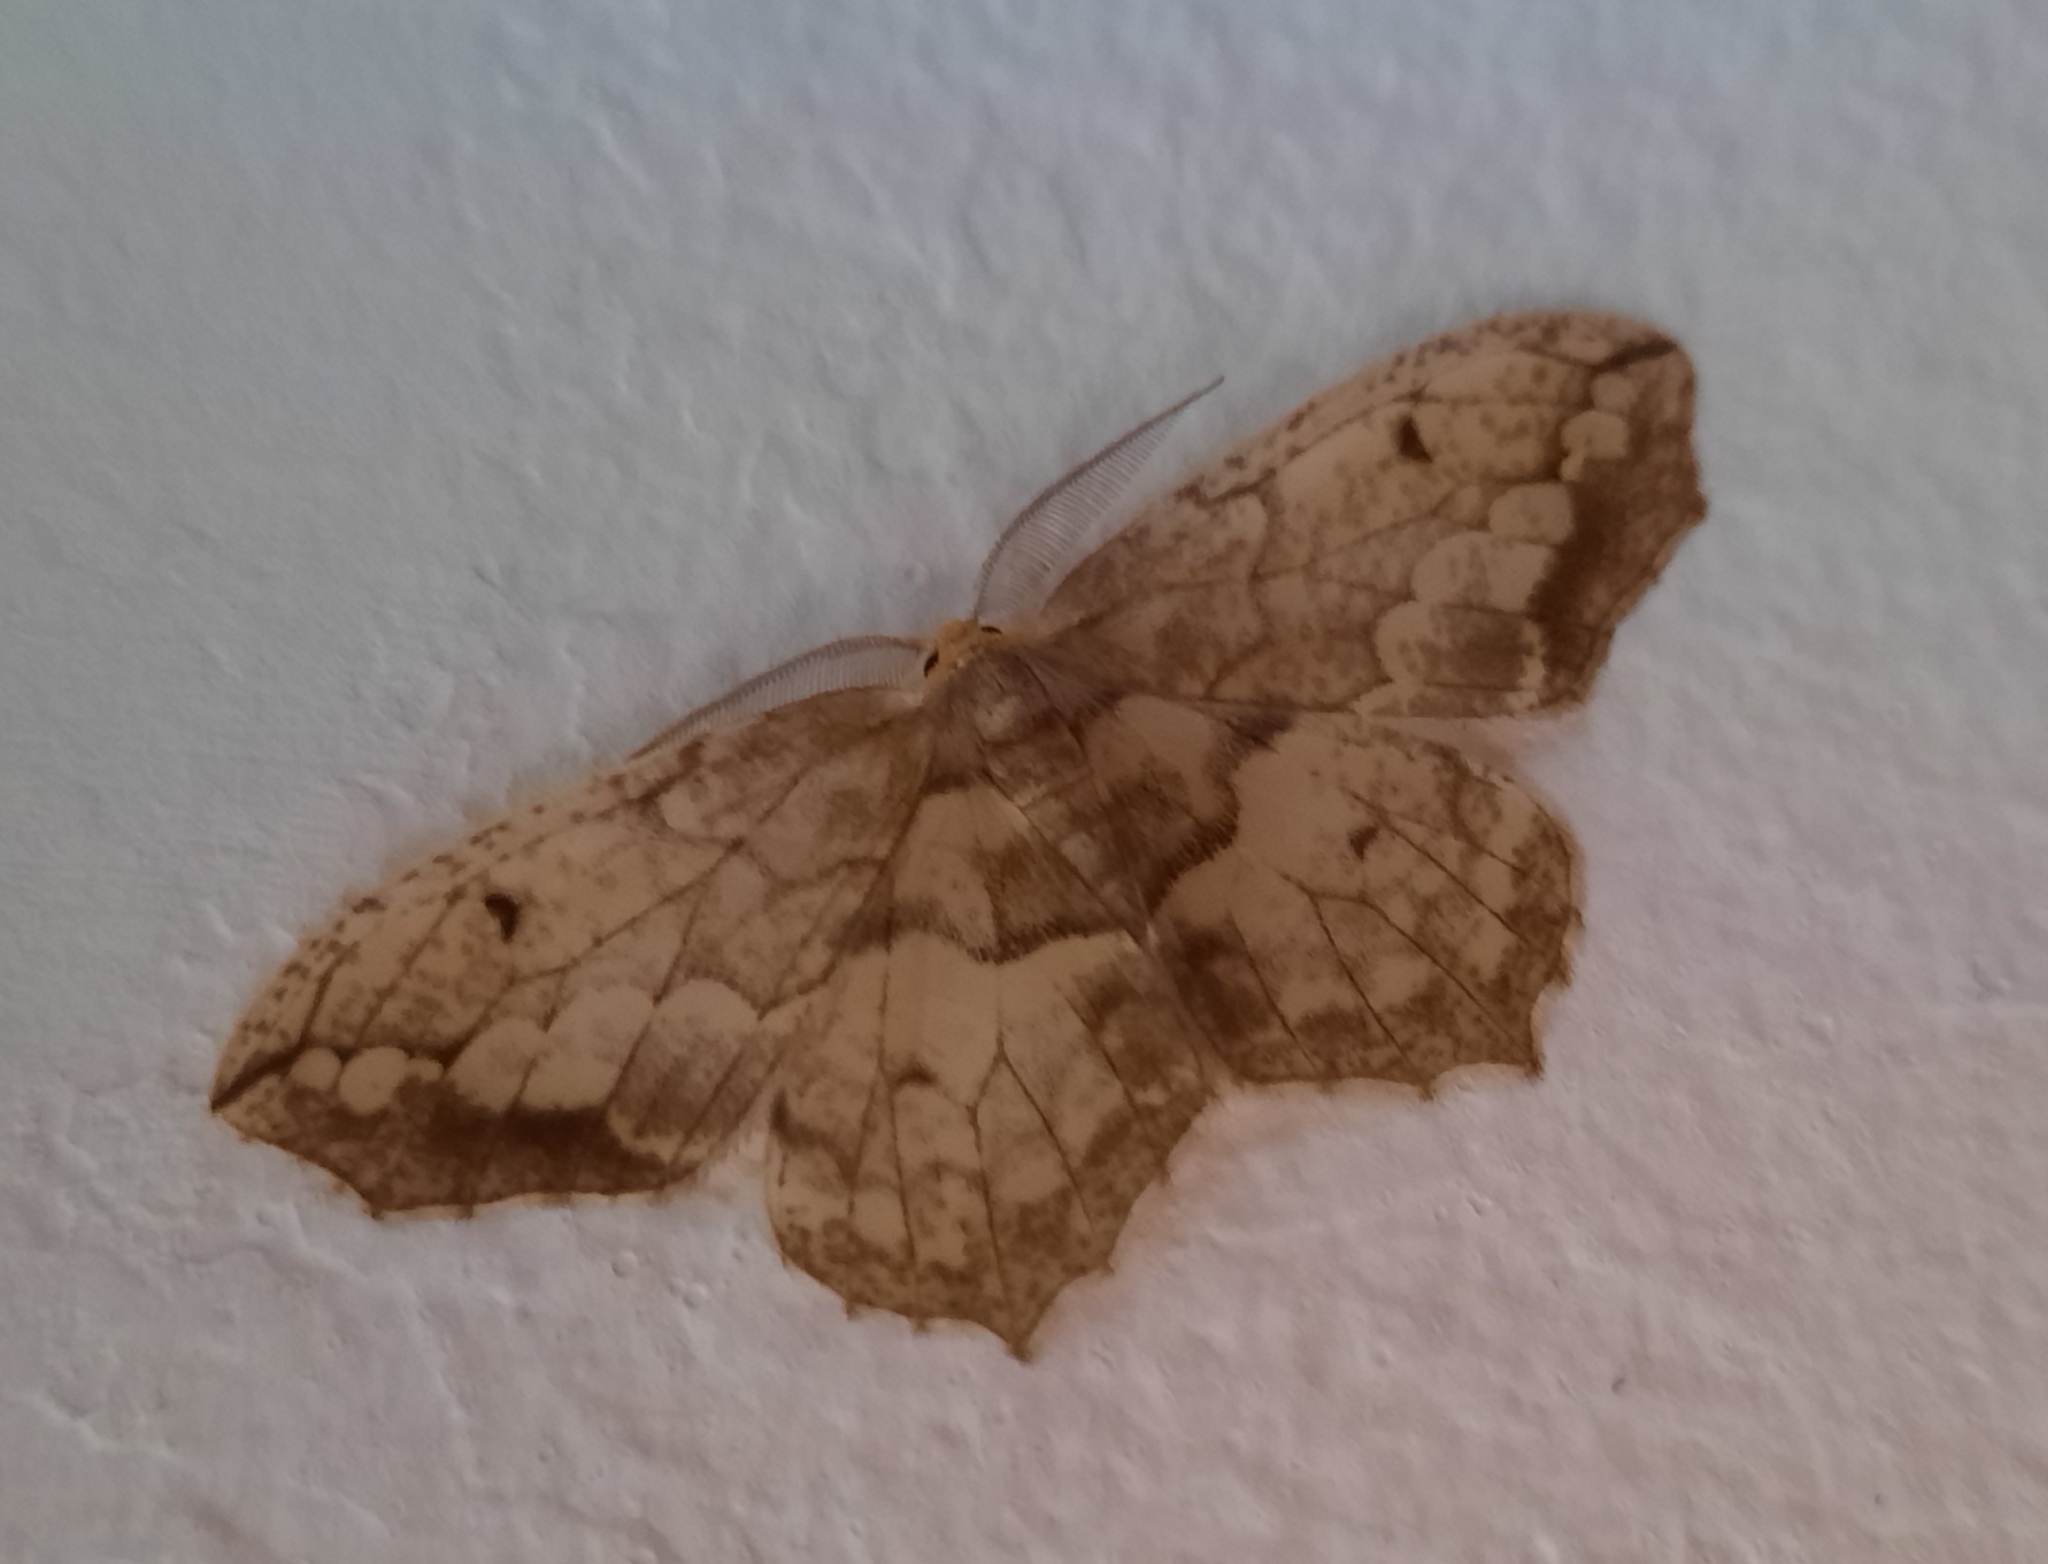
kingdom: Animalia
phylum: Arthropoda
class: Insecta
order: Lepidoptera
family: Geometridae
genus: Hydatoscia
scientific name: Hydatoscia ategua
